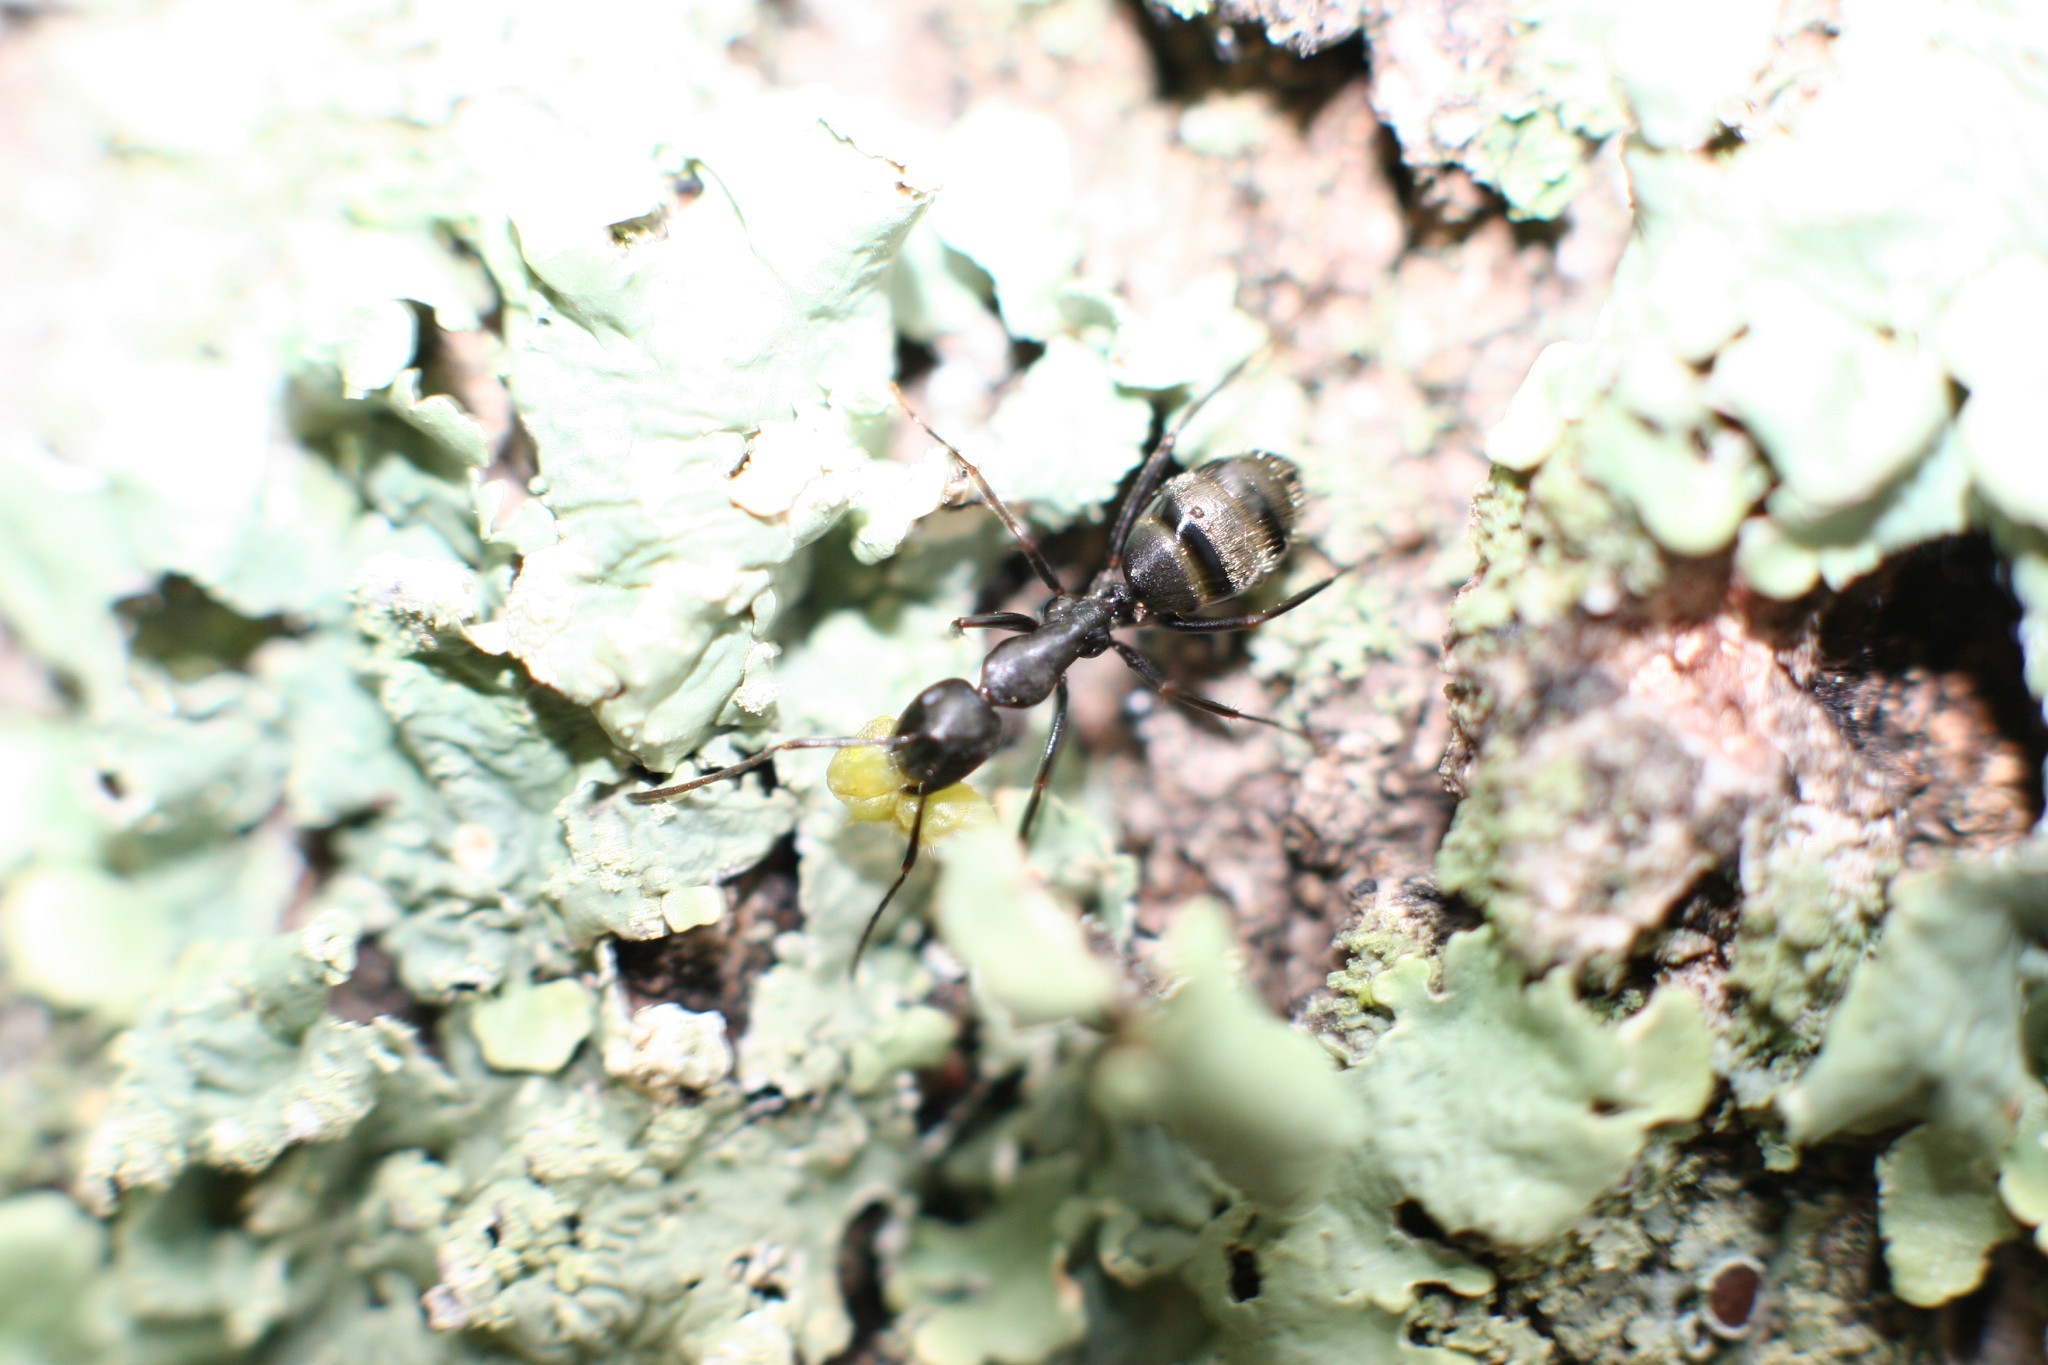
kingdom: Animalia
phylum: Arthropoda
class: Insecta
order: Hymenoptera
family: Formicidae
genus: Camponotus
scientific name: Camponotus pennsylvanicus
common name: Black carpenter ant
